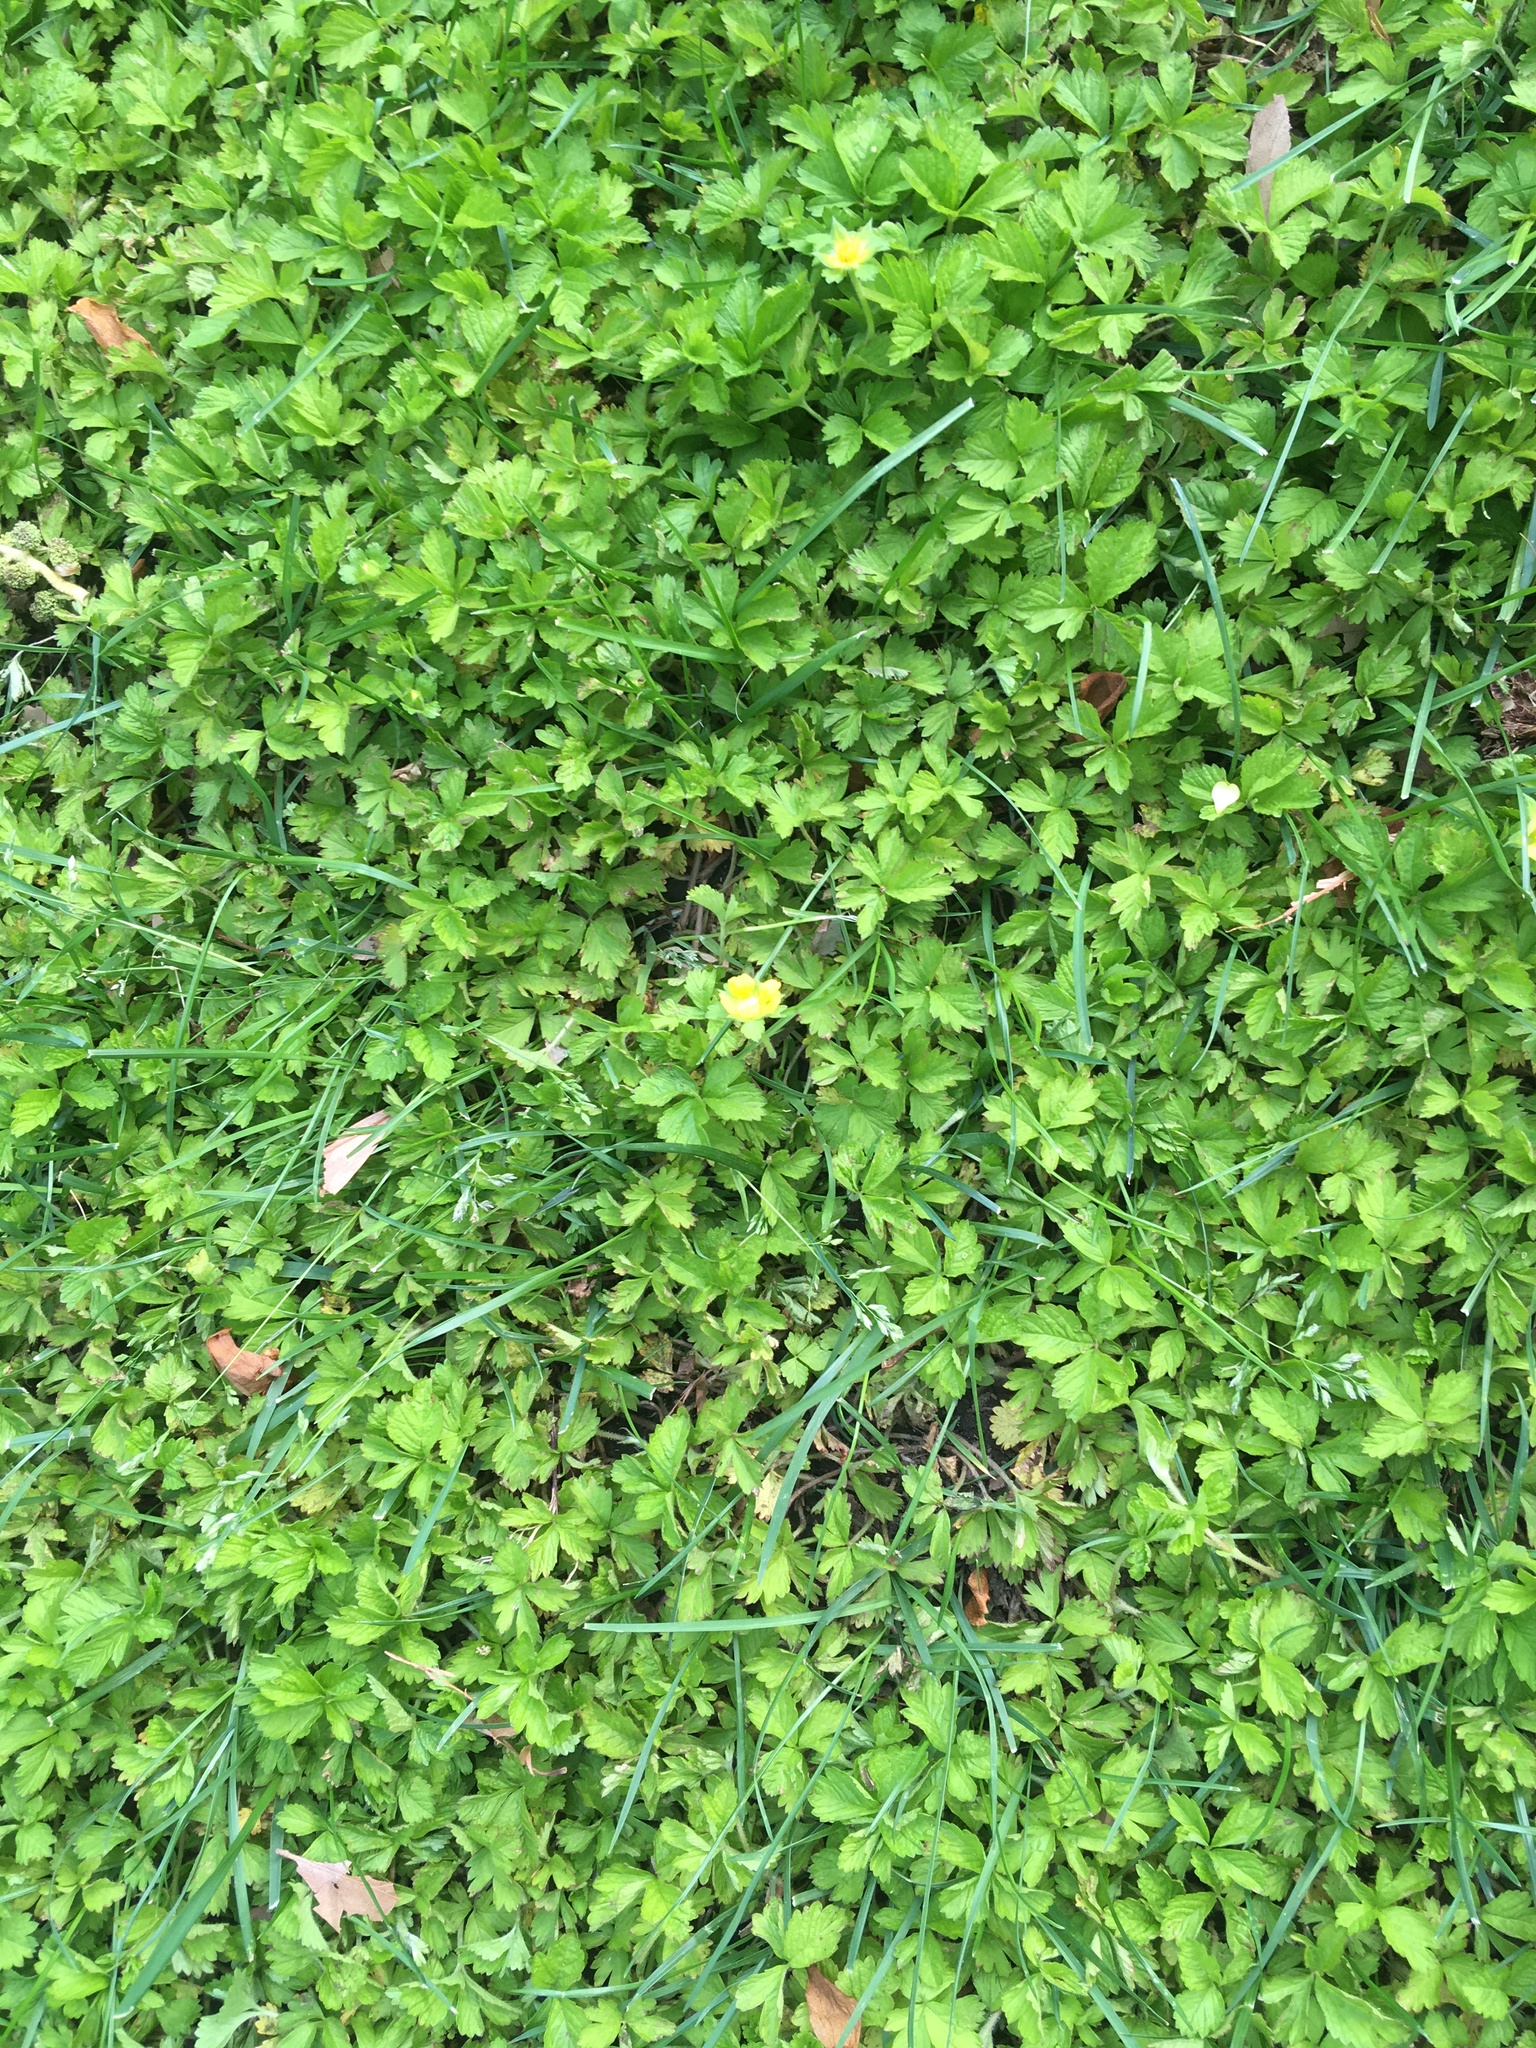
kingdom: Plantae
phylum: Tracheophyta
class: Magnoliopsida
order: Rosales
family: Rosaceae
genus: Potentilla
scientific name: Potentilla indica
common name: Yellow-flowered strawberry
